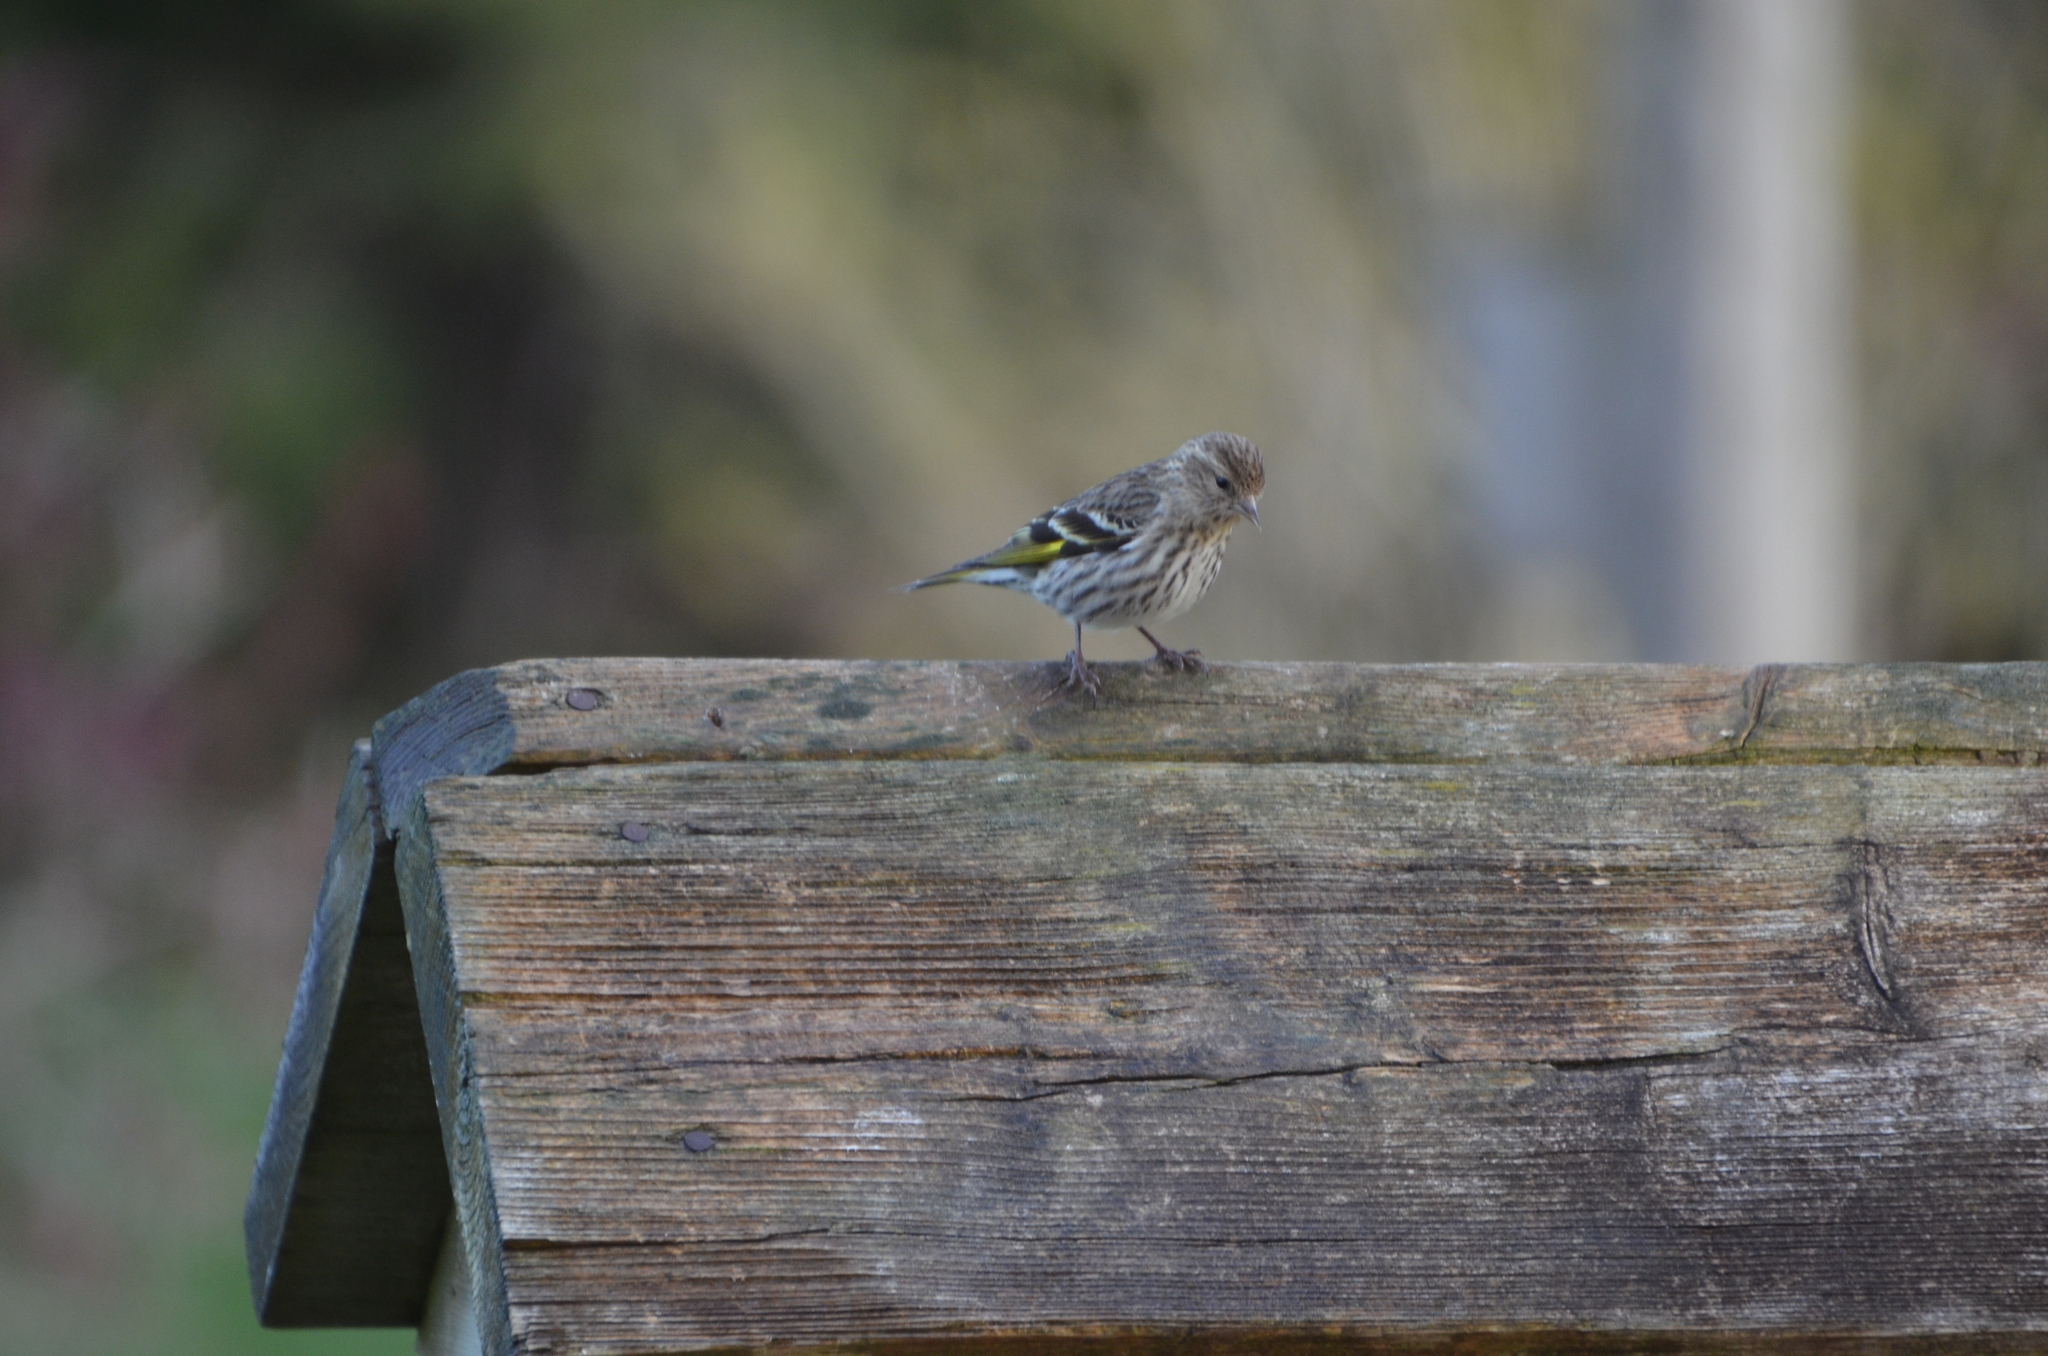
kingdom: Animalia
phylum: Chordata
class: Aves
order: Passeriformes
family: Fringillidae
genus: Spinus
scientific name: Spinus pinus
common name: Pine siskin
